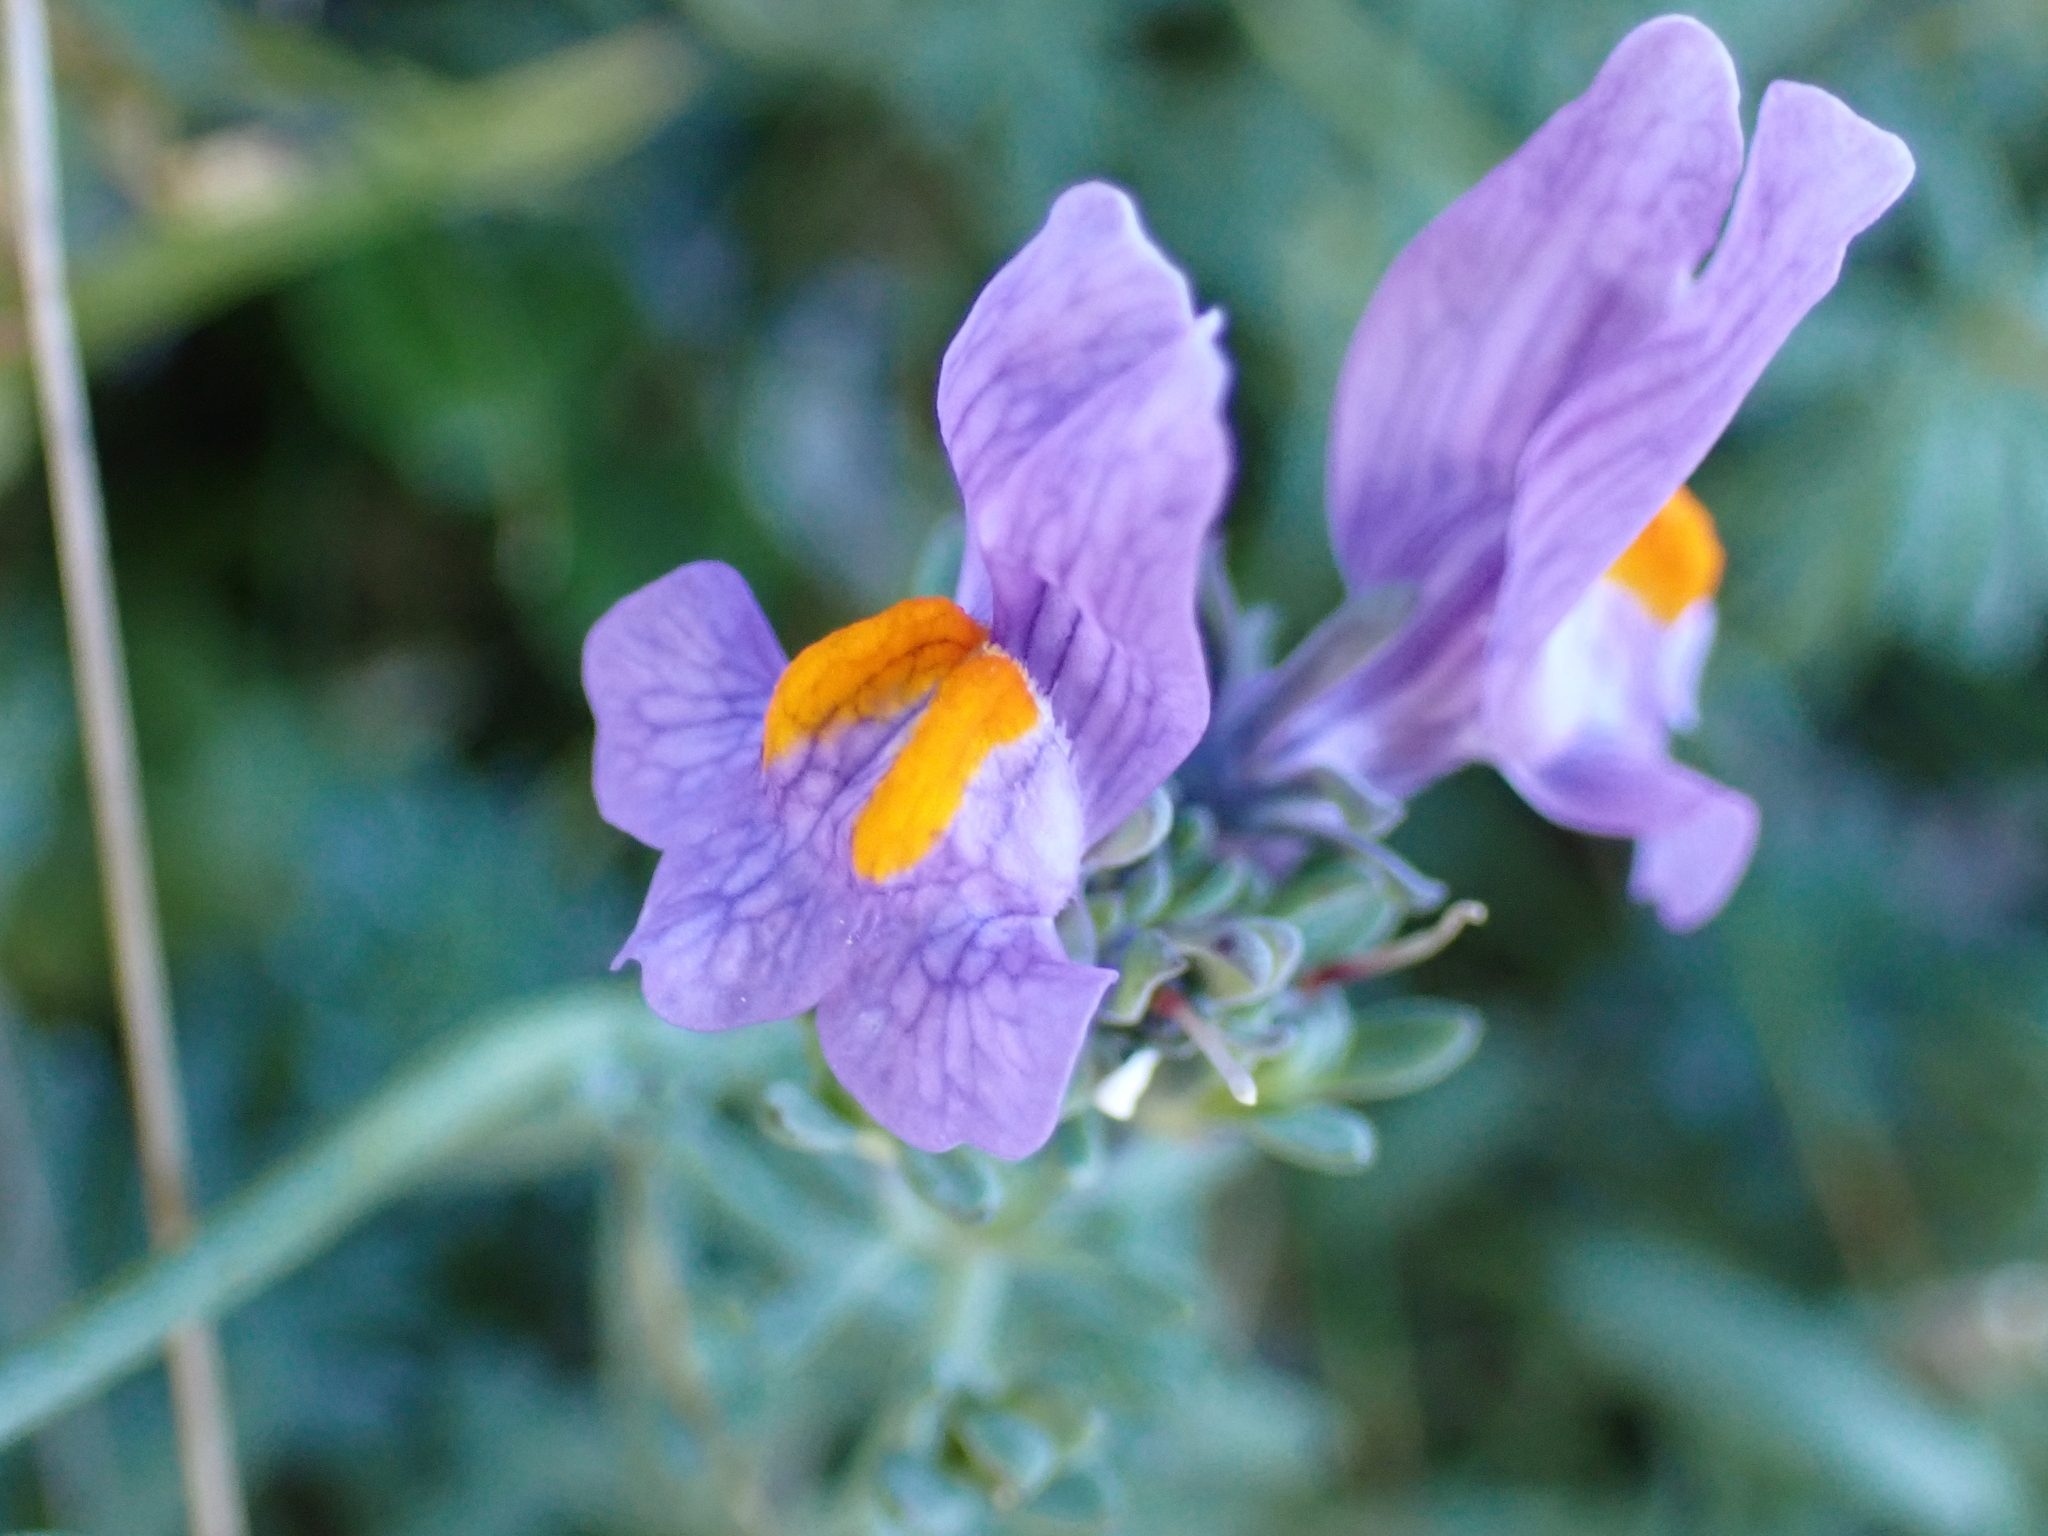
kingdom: Plantae
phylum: Tracheophyta
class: Magnoliopsida
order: Lamiales
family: Plantaginaceae
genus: Linaria
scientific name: Linaria alpina
